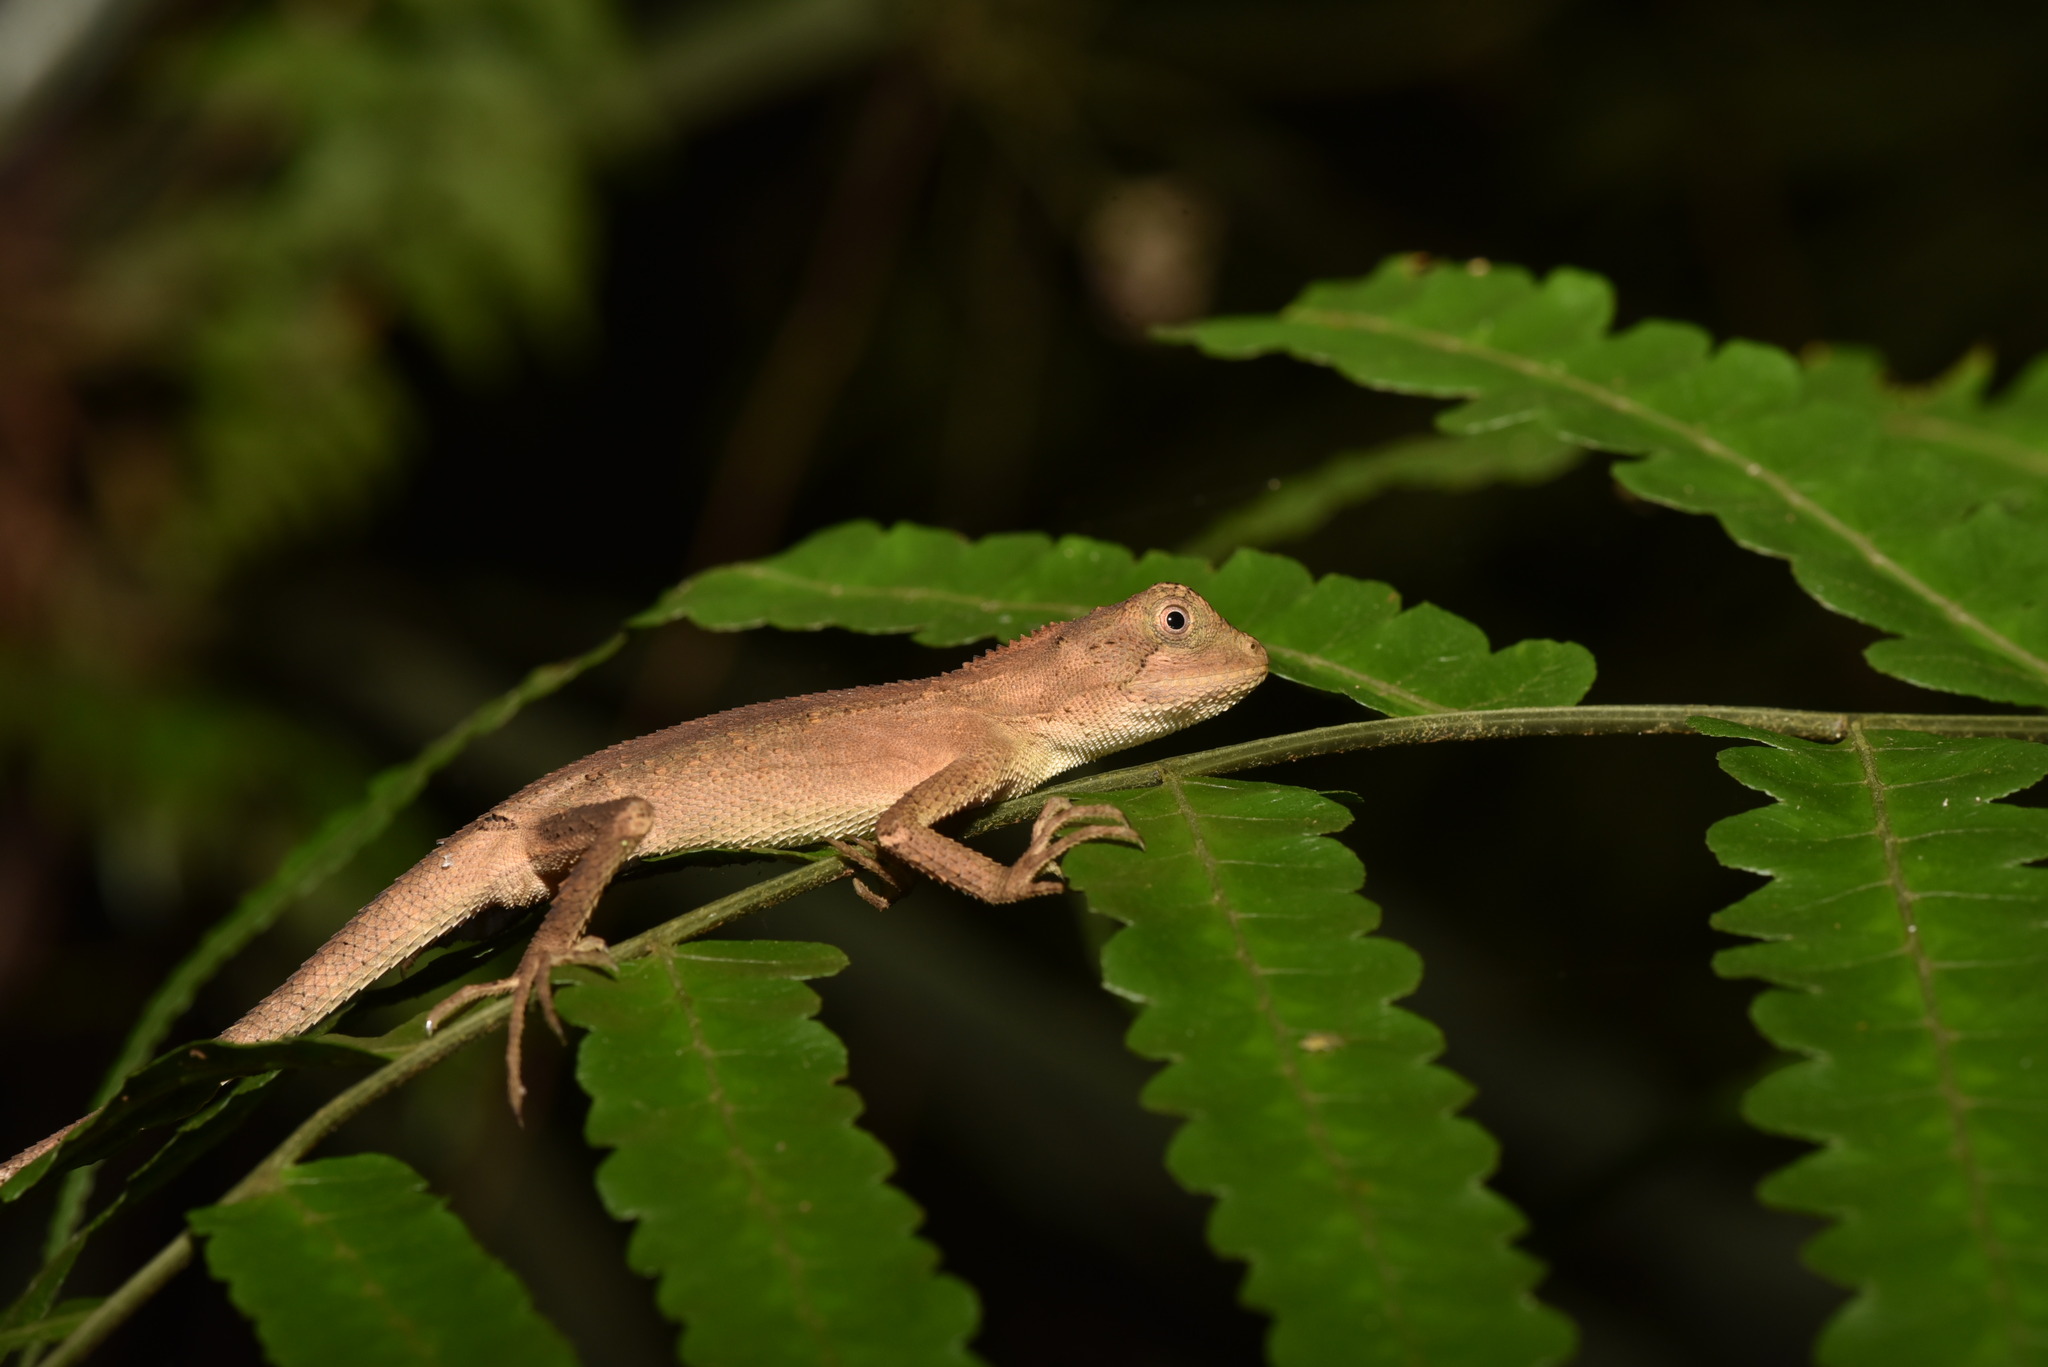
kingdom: Animalia
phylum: Chordata
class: Squamata
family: Agamidae
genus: Diploderma
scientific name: Diploderma swinhonis
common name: Taiwan japalure
